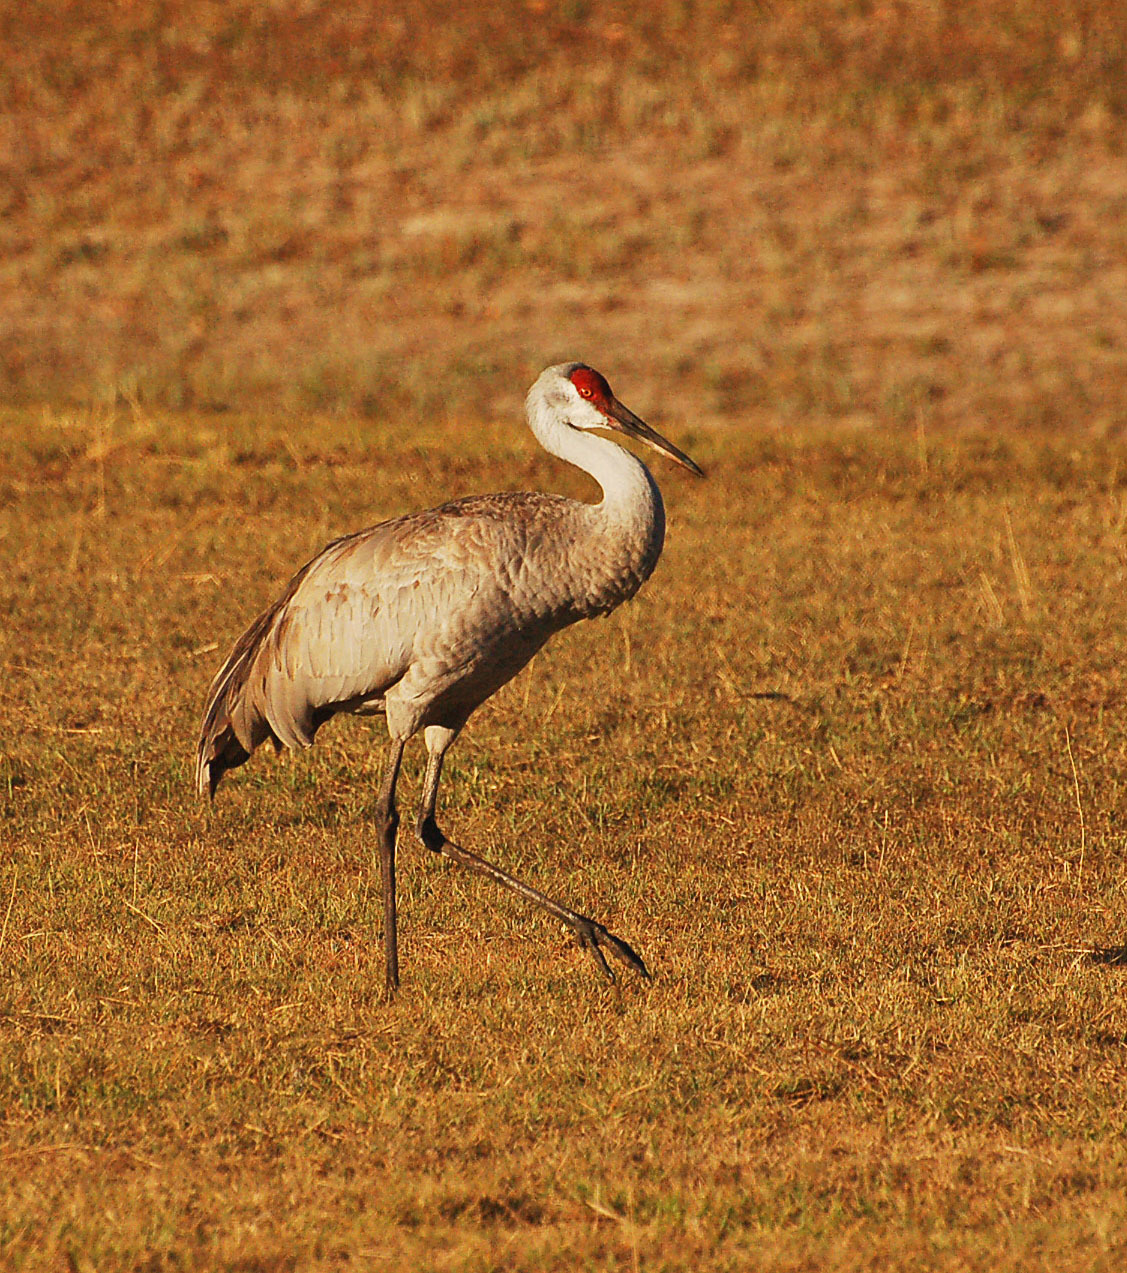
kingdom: Animalia
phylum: Chordata
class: Aves
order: Gruiformes
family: Gruidae
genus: Grus
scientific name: Grus canadensis
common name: Sandhill crane
